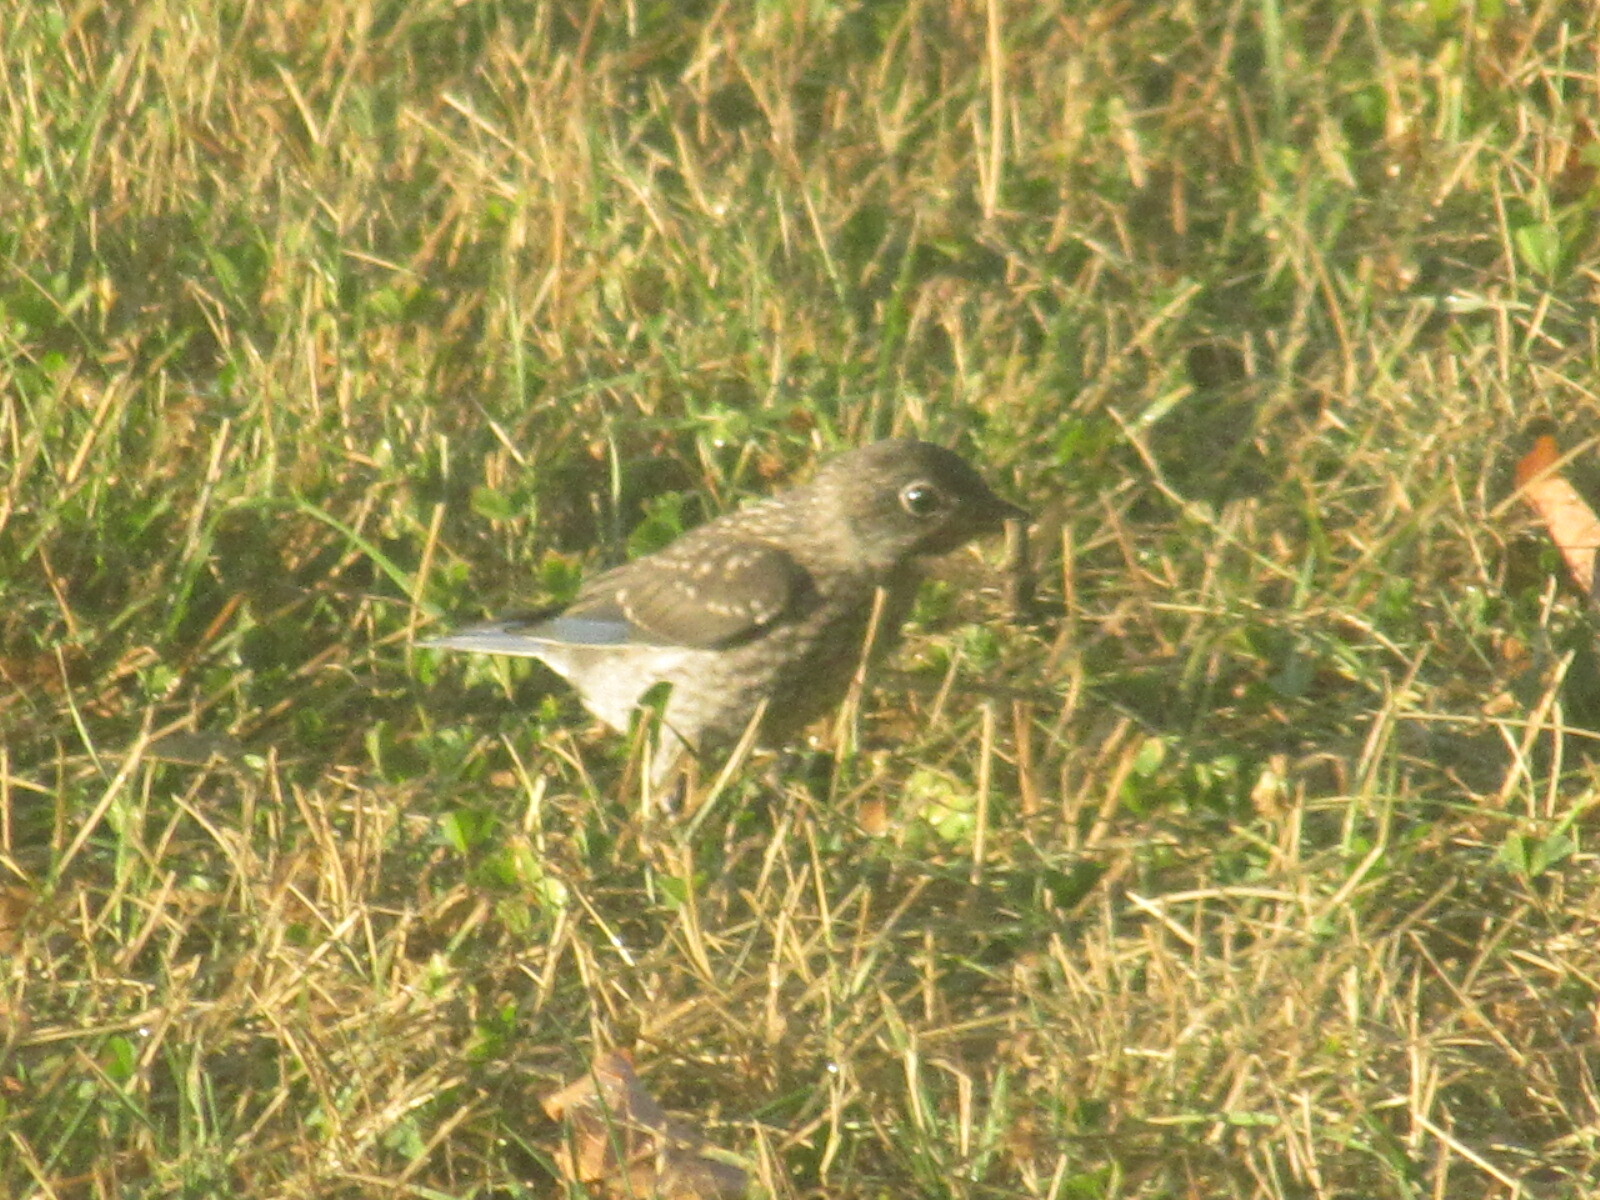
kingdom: Animalia
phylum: Chordata
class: Aves
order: Passeriformes
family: Turdidae
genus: Sialia
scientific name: Sialia sialis
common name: Eastern bluebird
